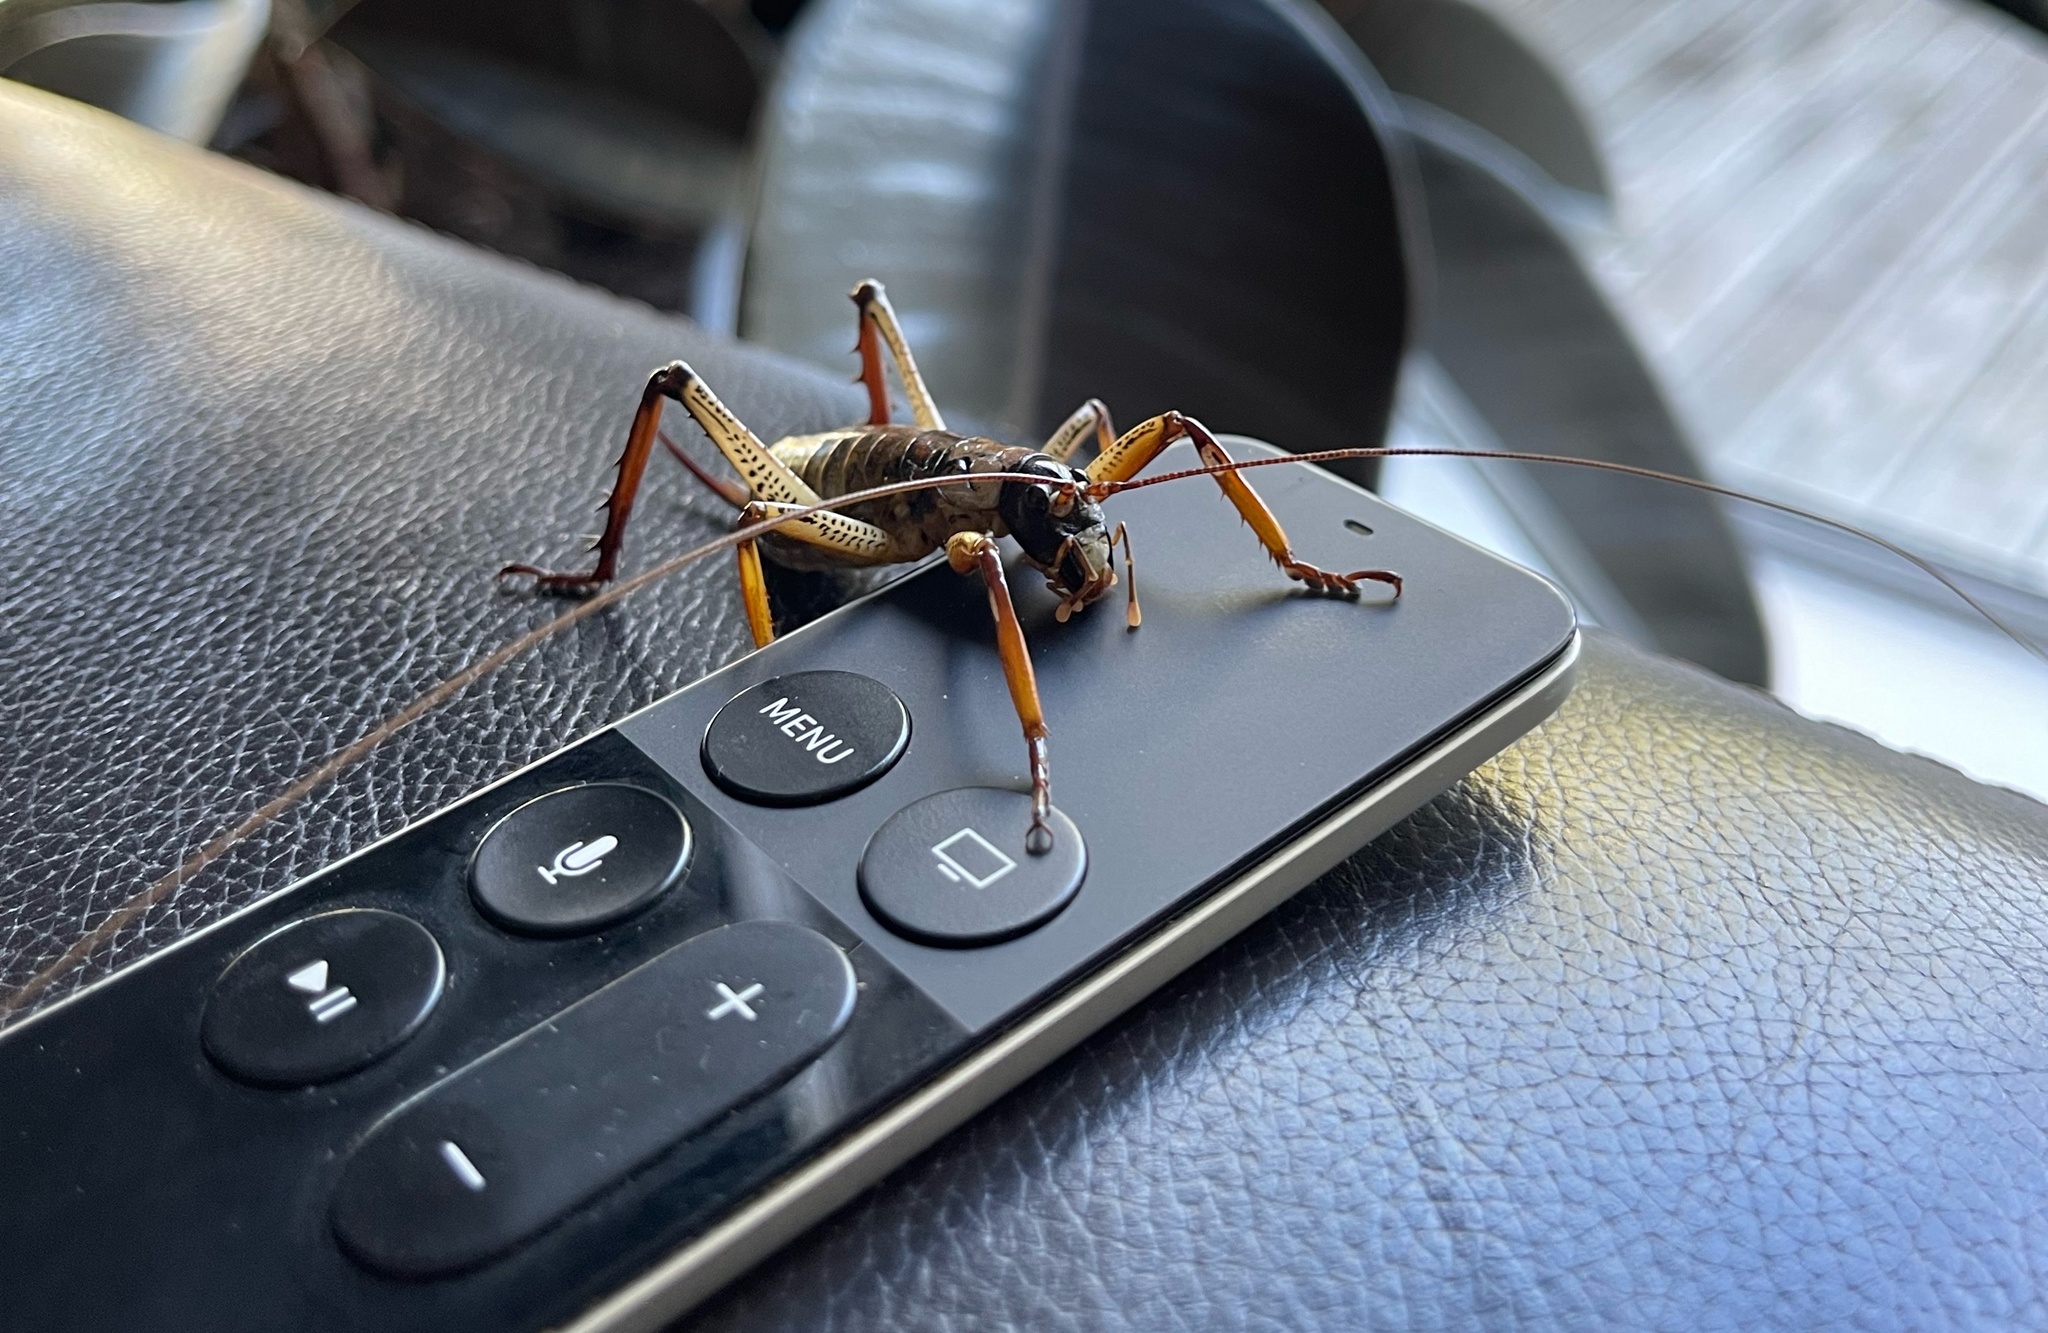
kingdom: Animalia
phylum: Arthropoda
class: Insecta
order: Orthoptera
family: Anostostomatidae
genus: Hemideina
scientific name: Hemideina thoracica
